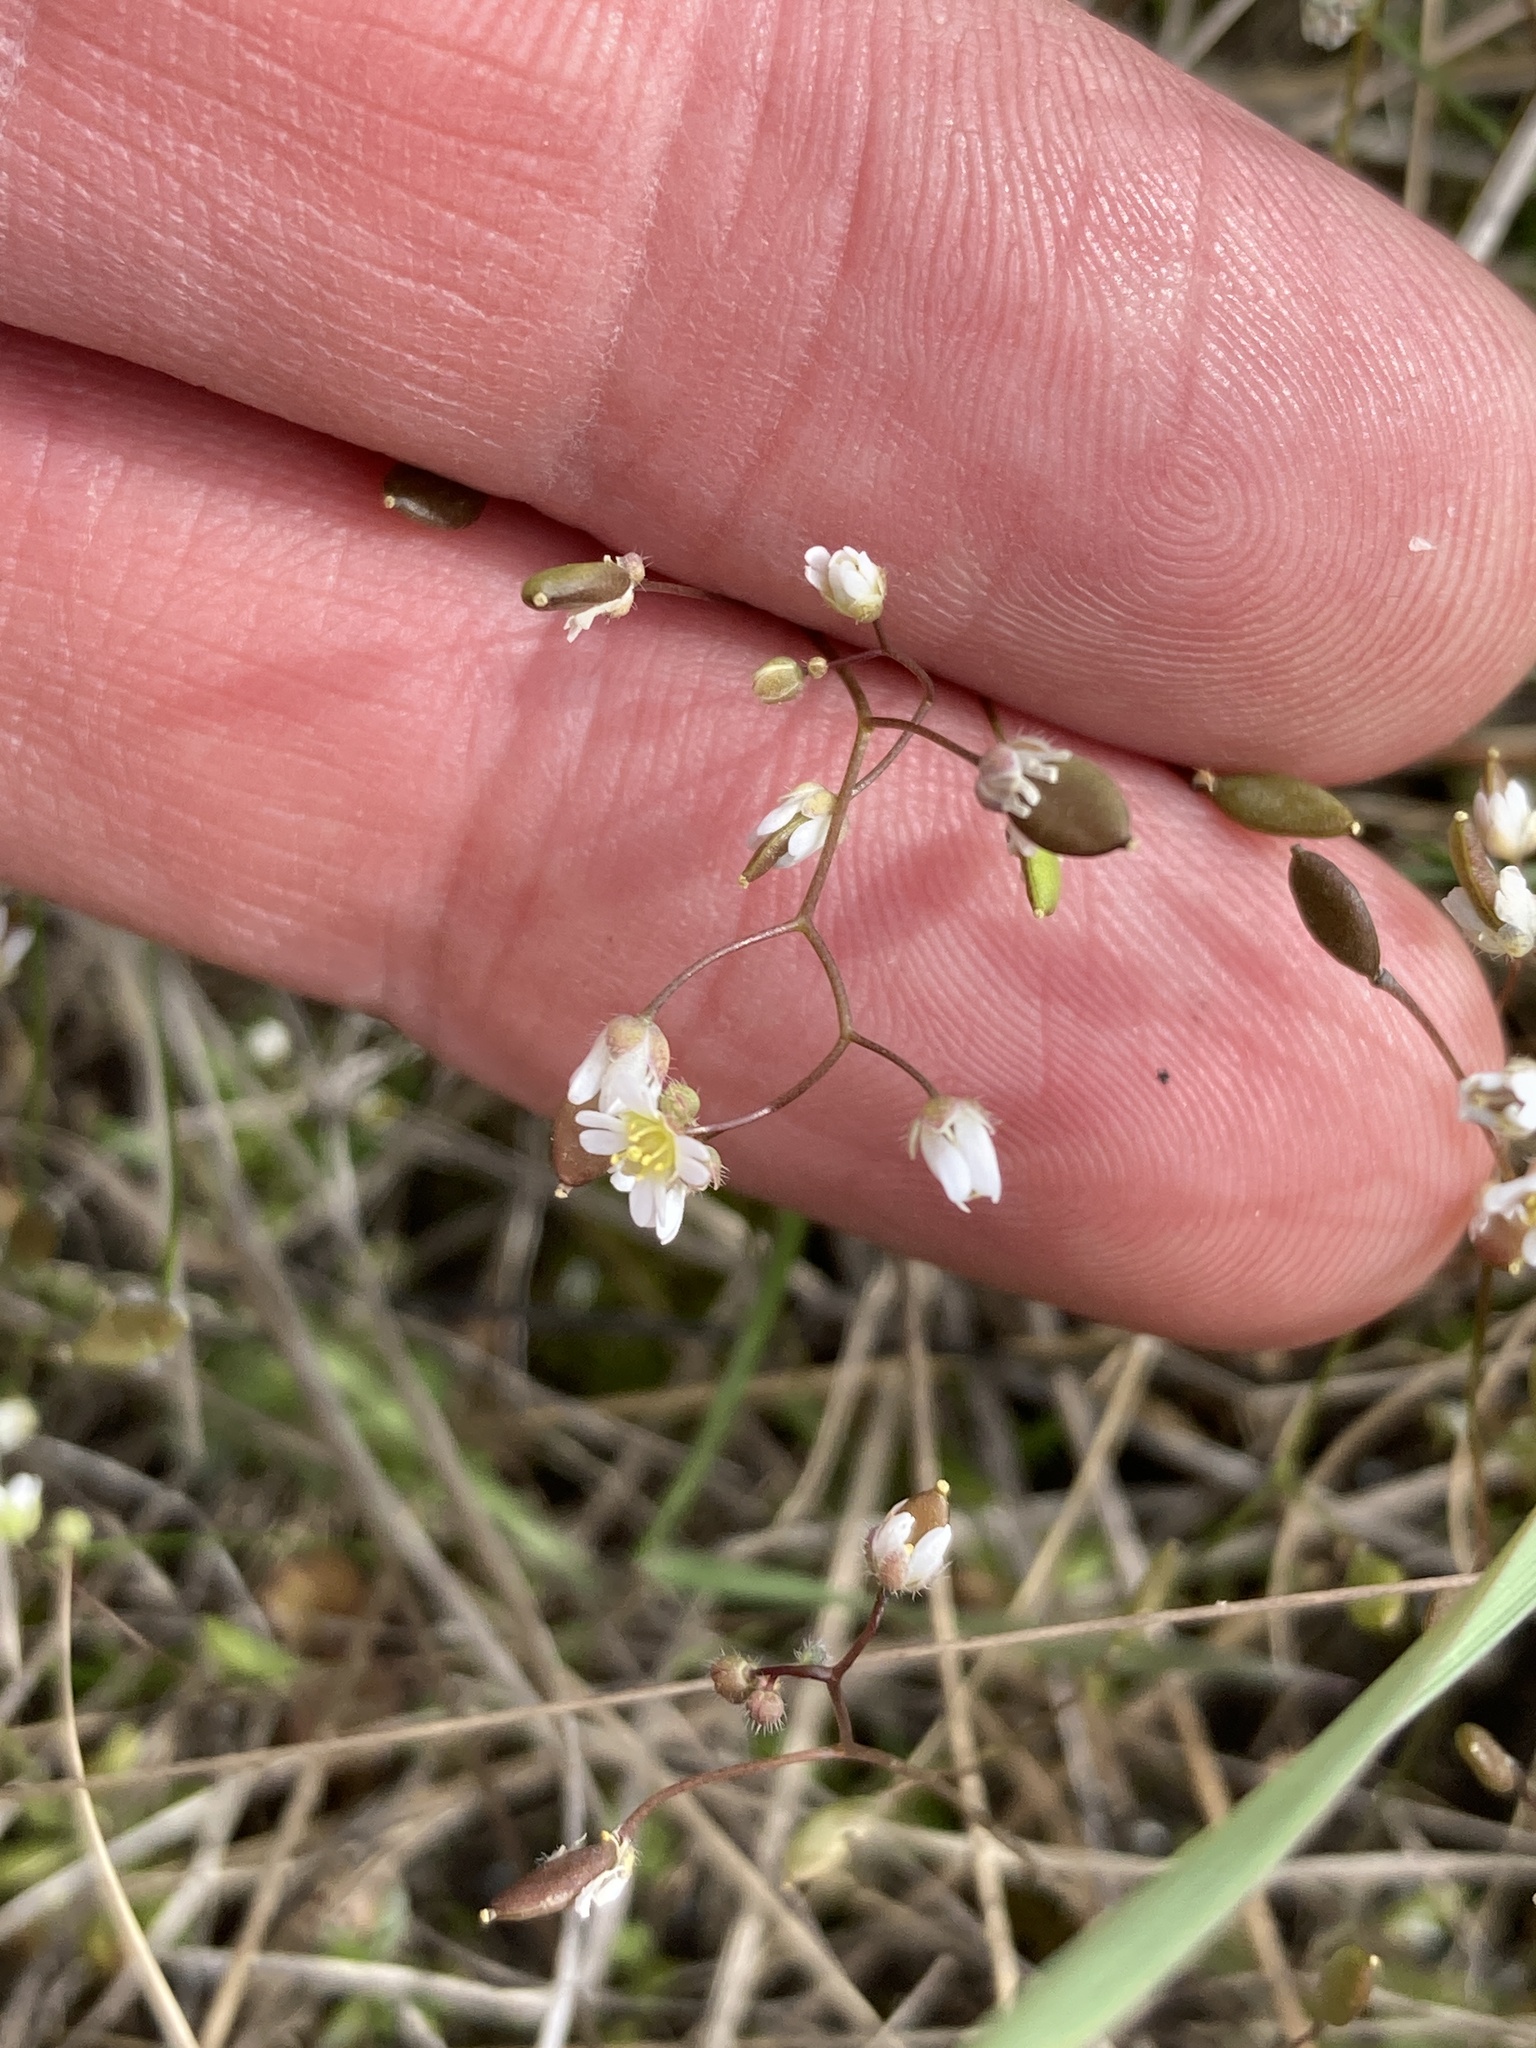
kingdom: Plantae
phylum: Tracheophyta
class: Magnoliopsida
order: Brassicales
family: Brassicaceae
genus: Draba
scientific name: Draba verna
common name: Spring draba
